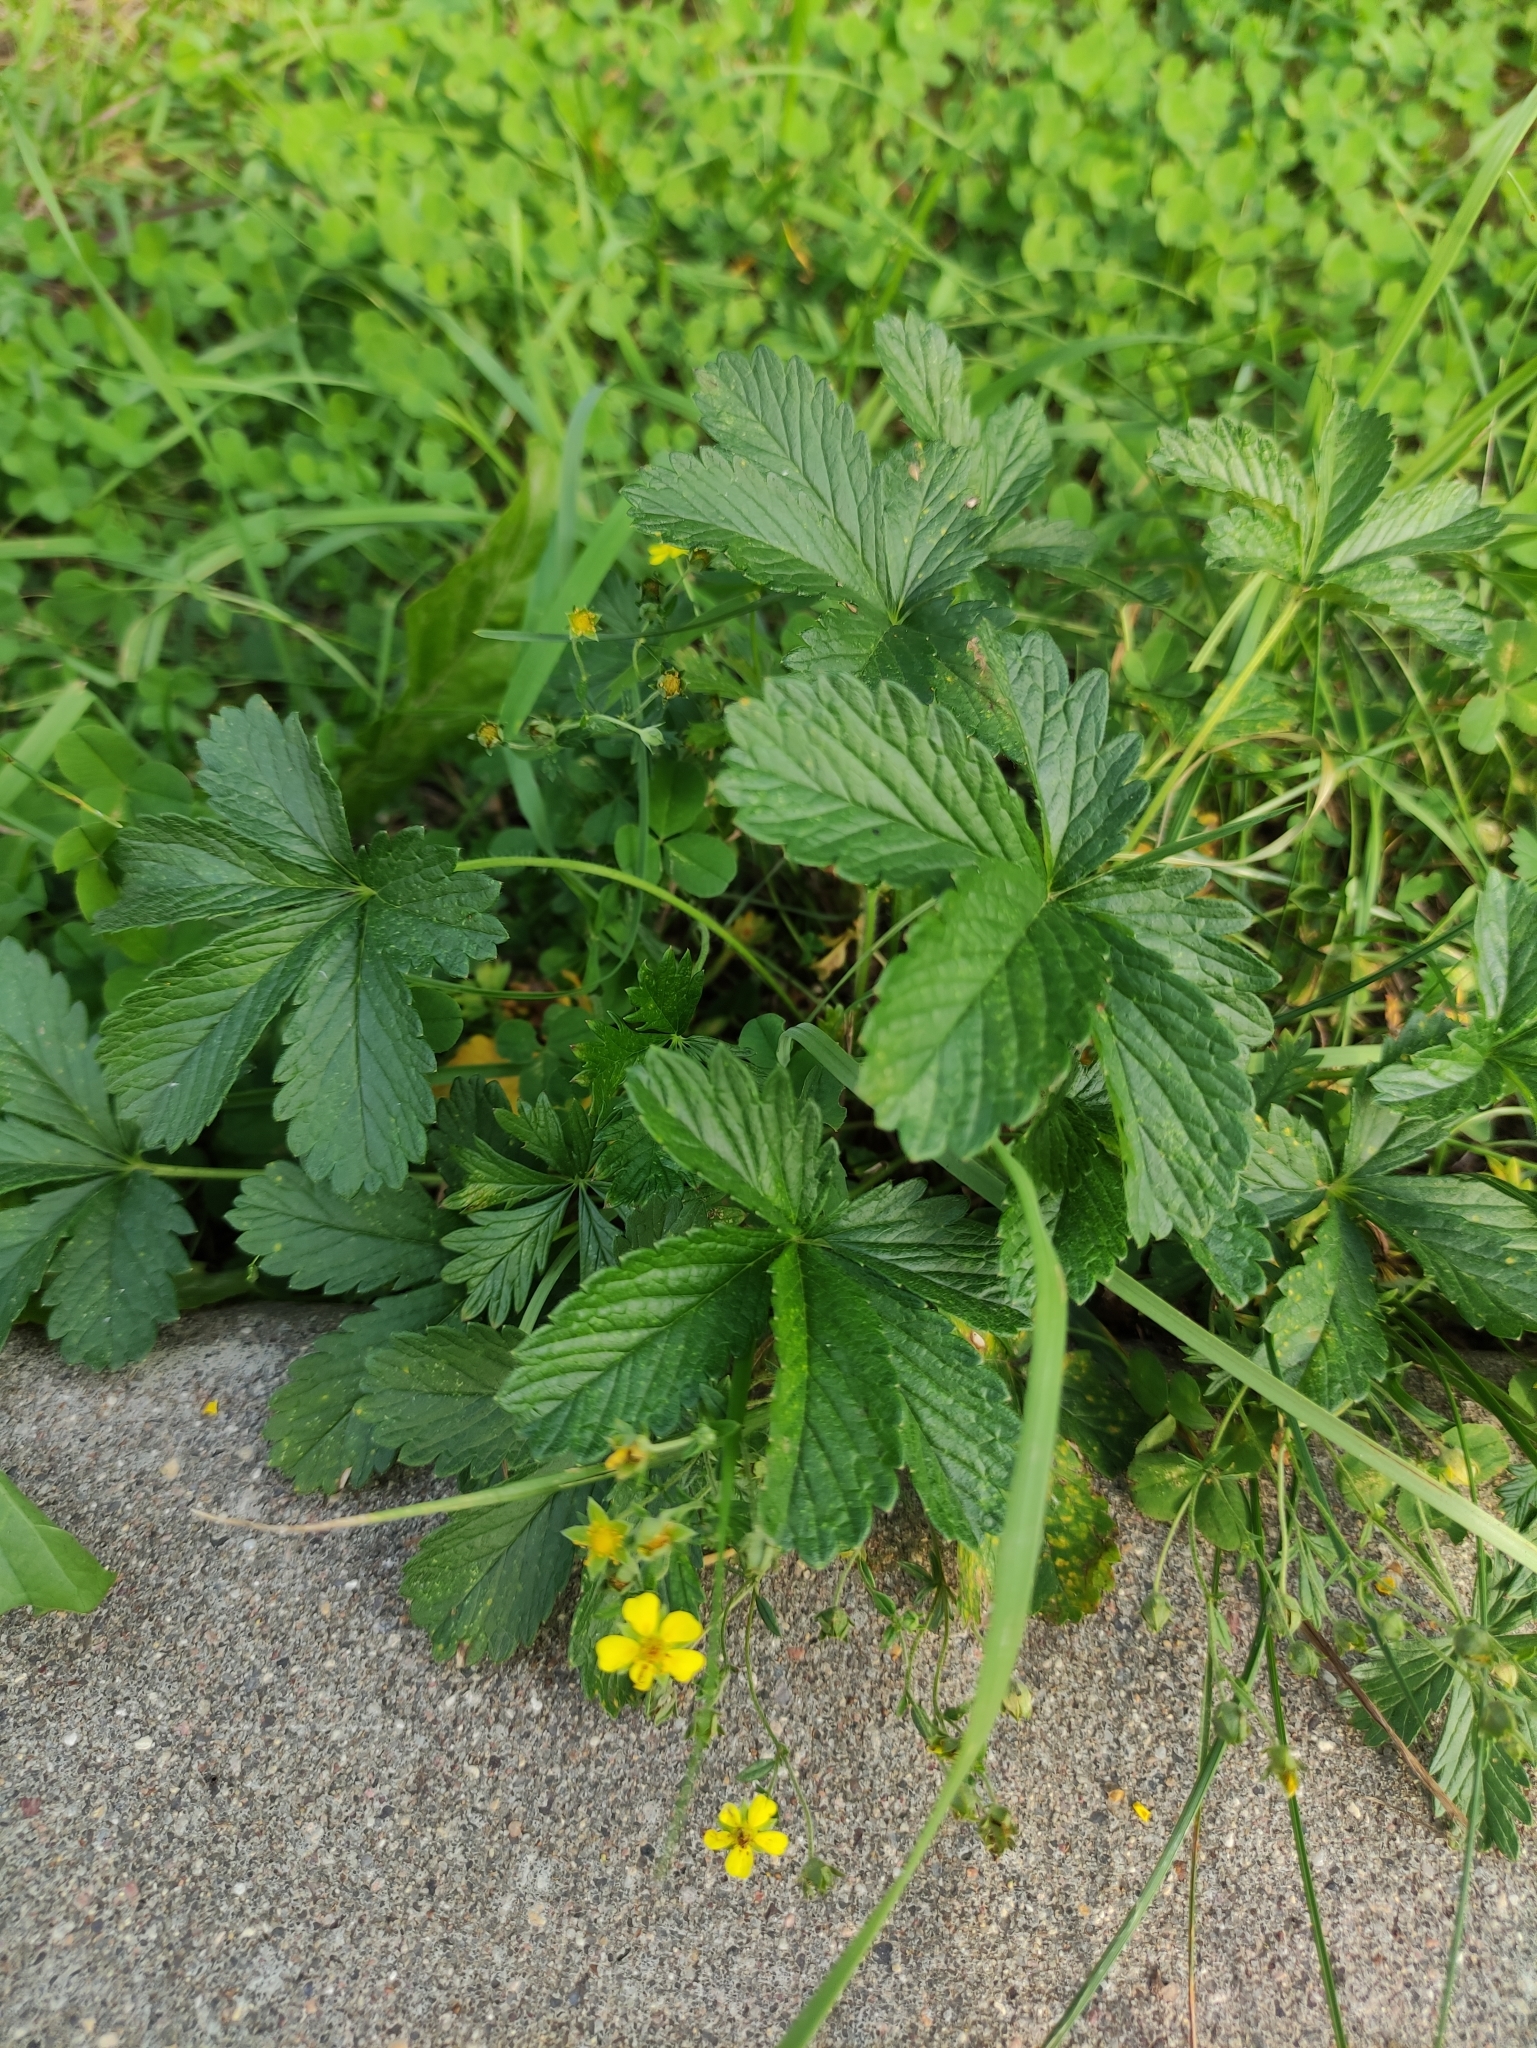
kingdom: Plantae
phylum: Tracheophyta
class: Magnoliopsida
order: Rosales
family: Rosaceae
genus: Potentilla
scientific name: Potentilla intermedia
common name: Downy cinquefoil
